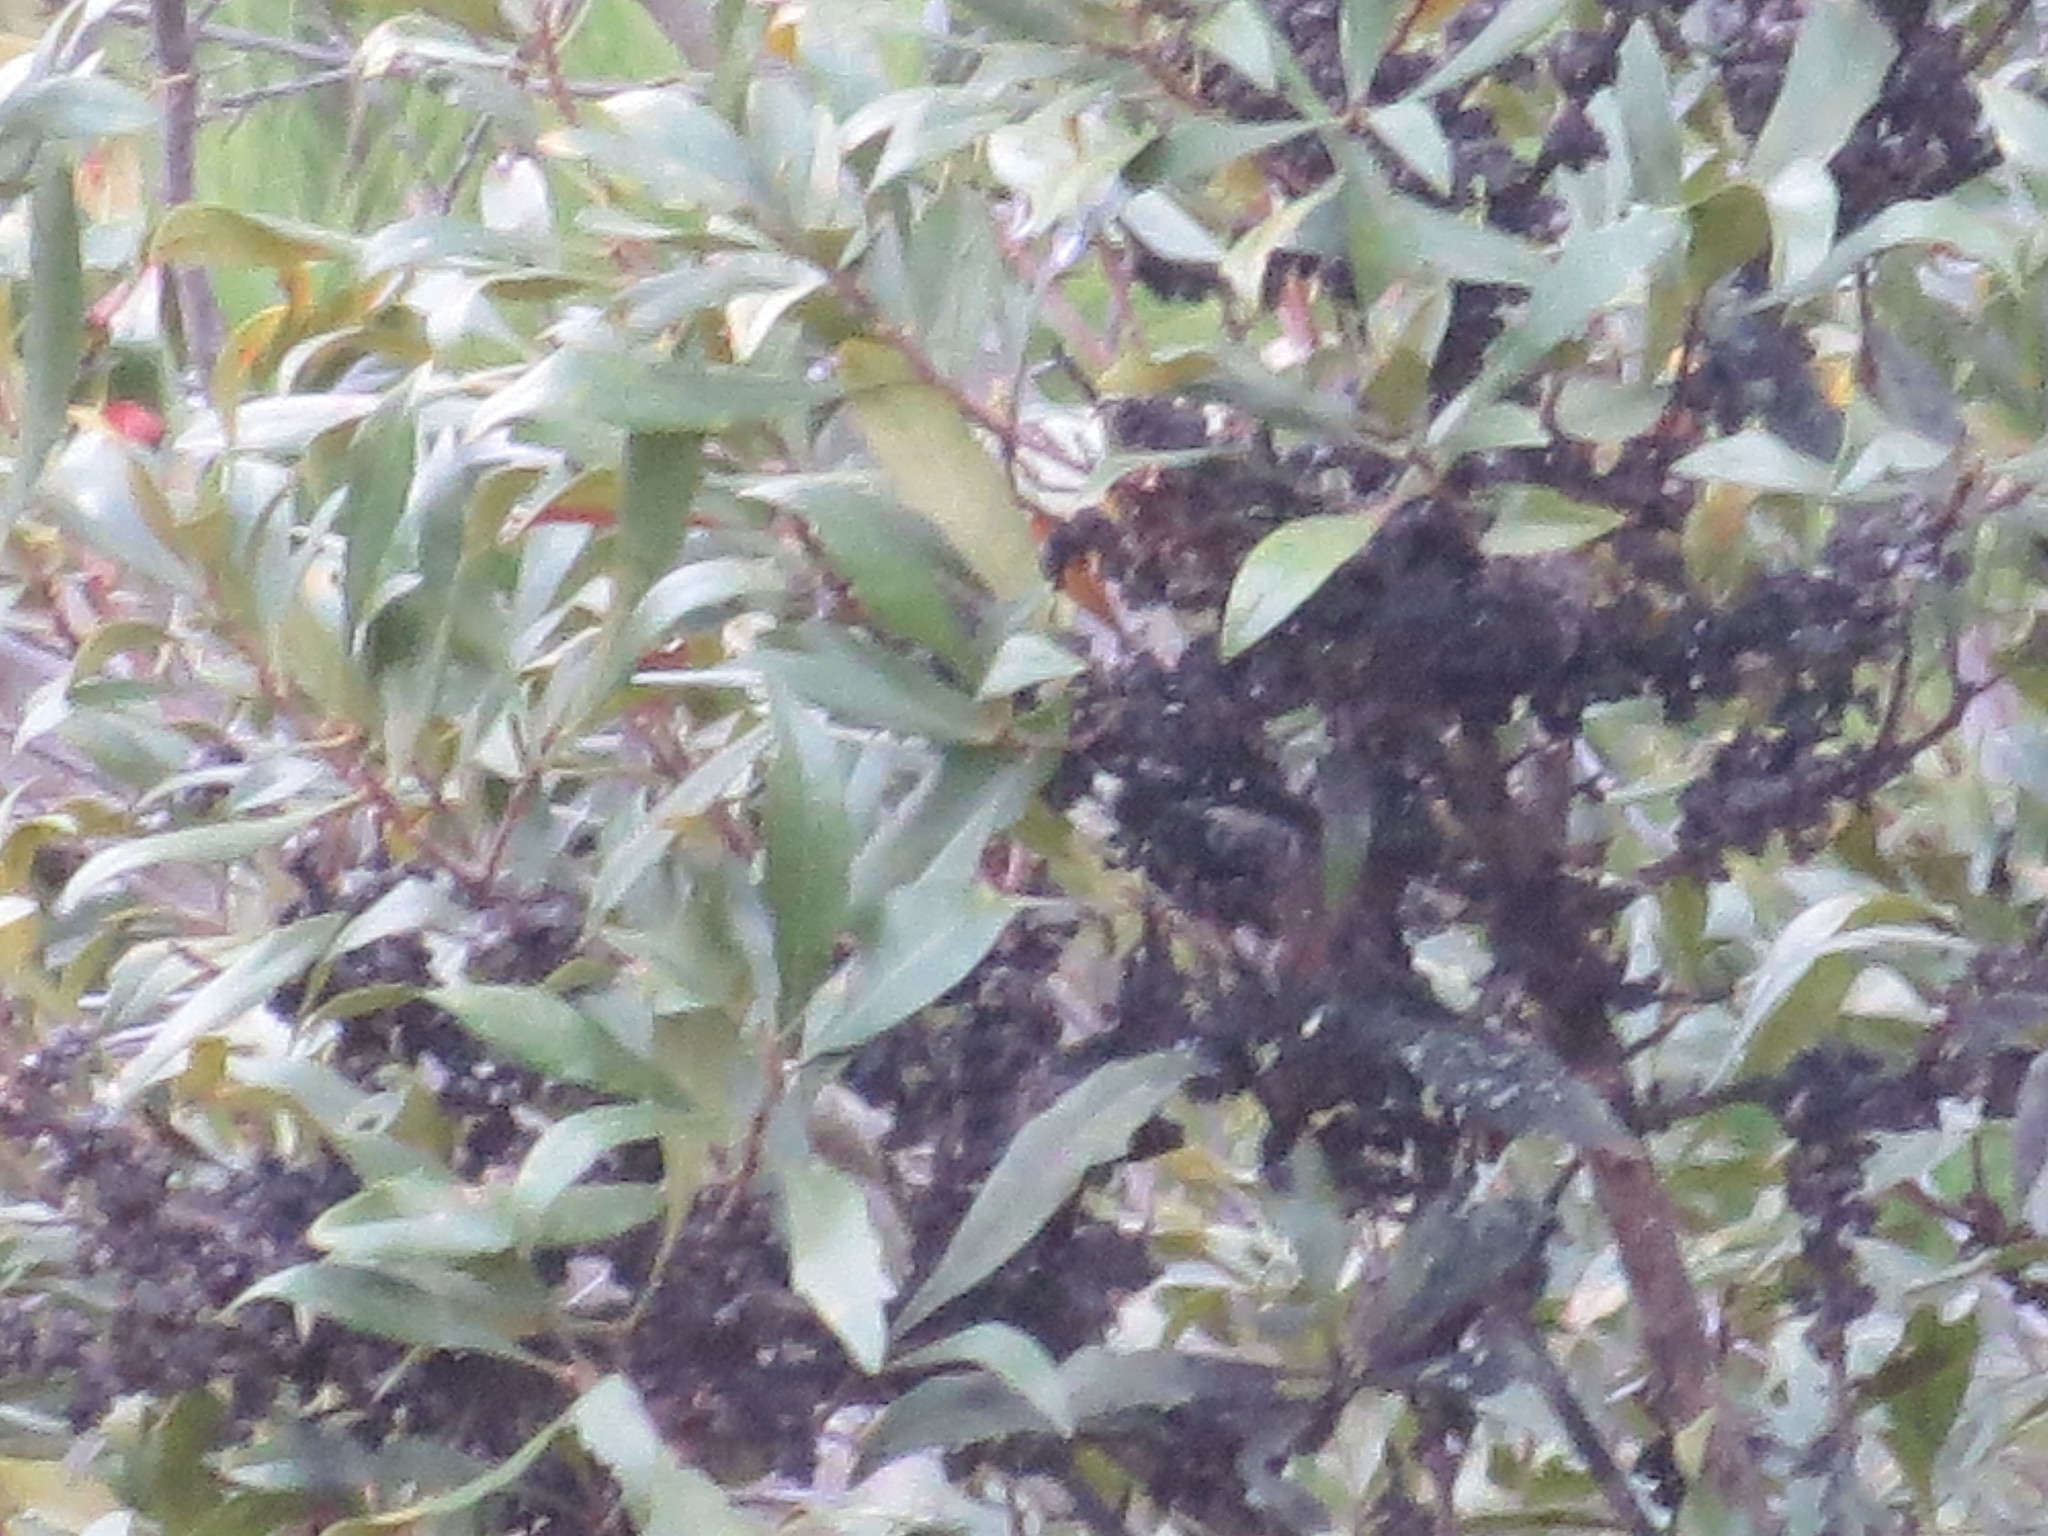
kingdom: Plantae
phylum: Tracheophyta
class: Magnoliopsida
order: Fagales
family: Myricaceae
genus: Morella
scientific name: Morella cerifera
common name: Wax myrtle
